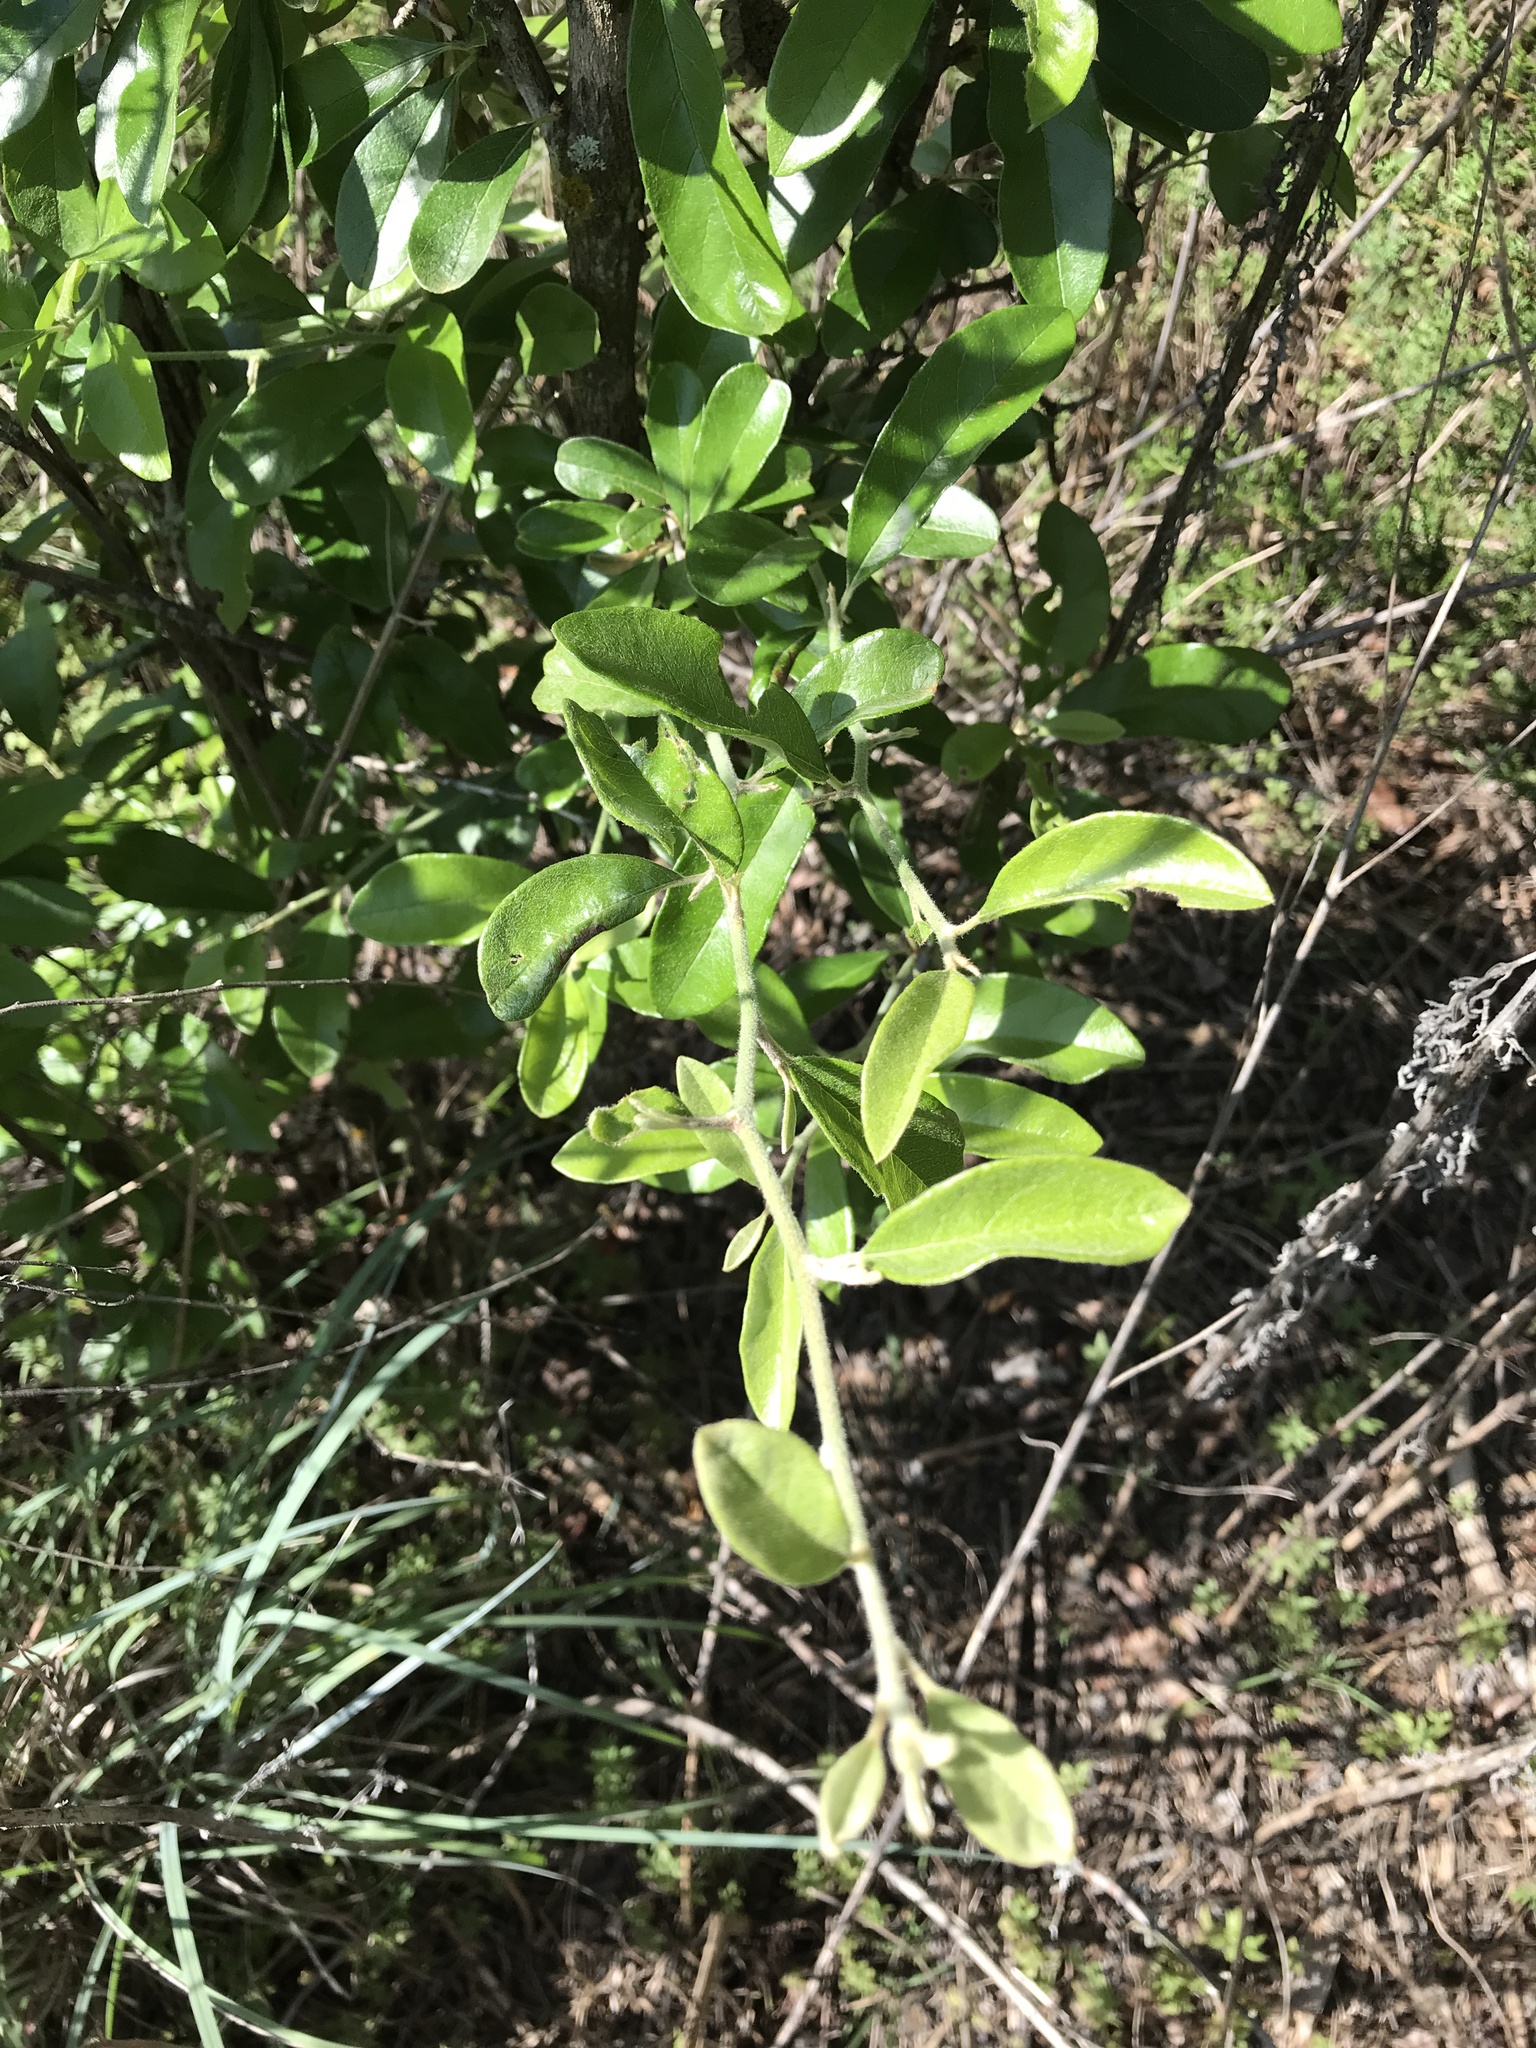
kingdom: Plantae
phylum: Tracheophyta
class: Magnoliopsida
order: Ericales
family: Sapotaceae
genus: Sideroxylon
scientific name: Sideroxylon lanuginosum
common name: Chittamwood
